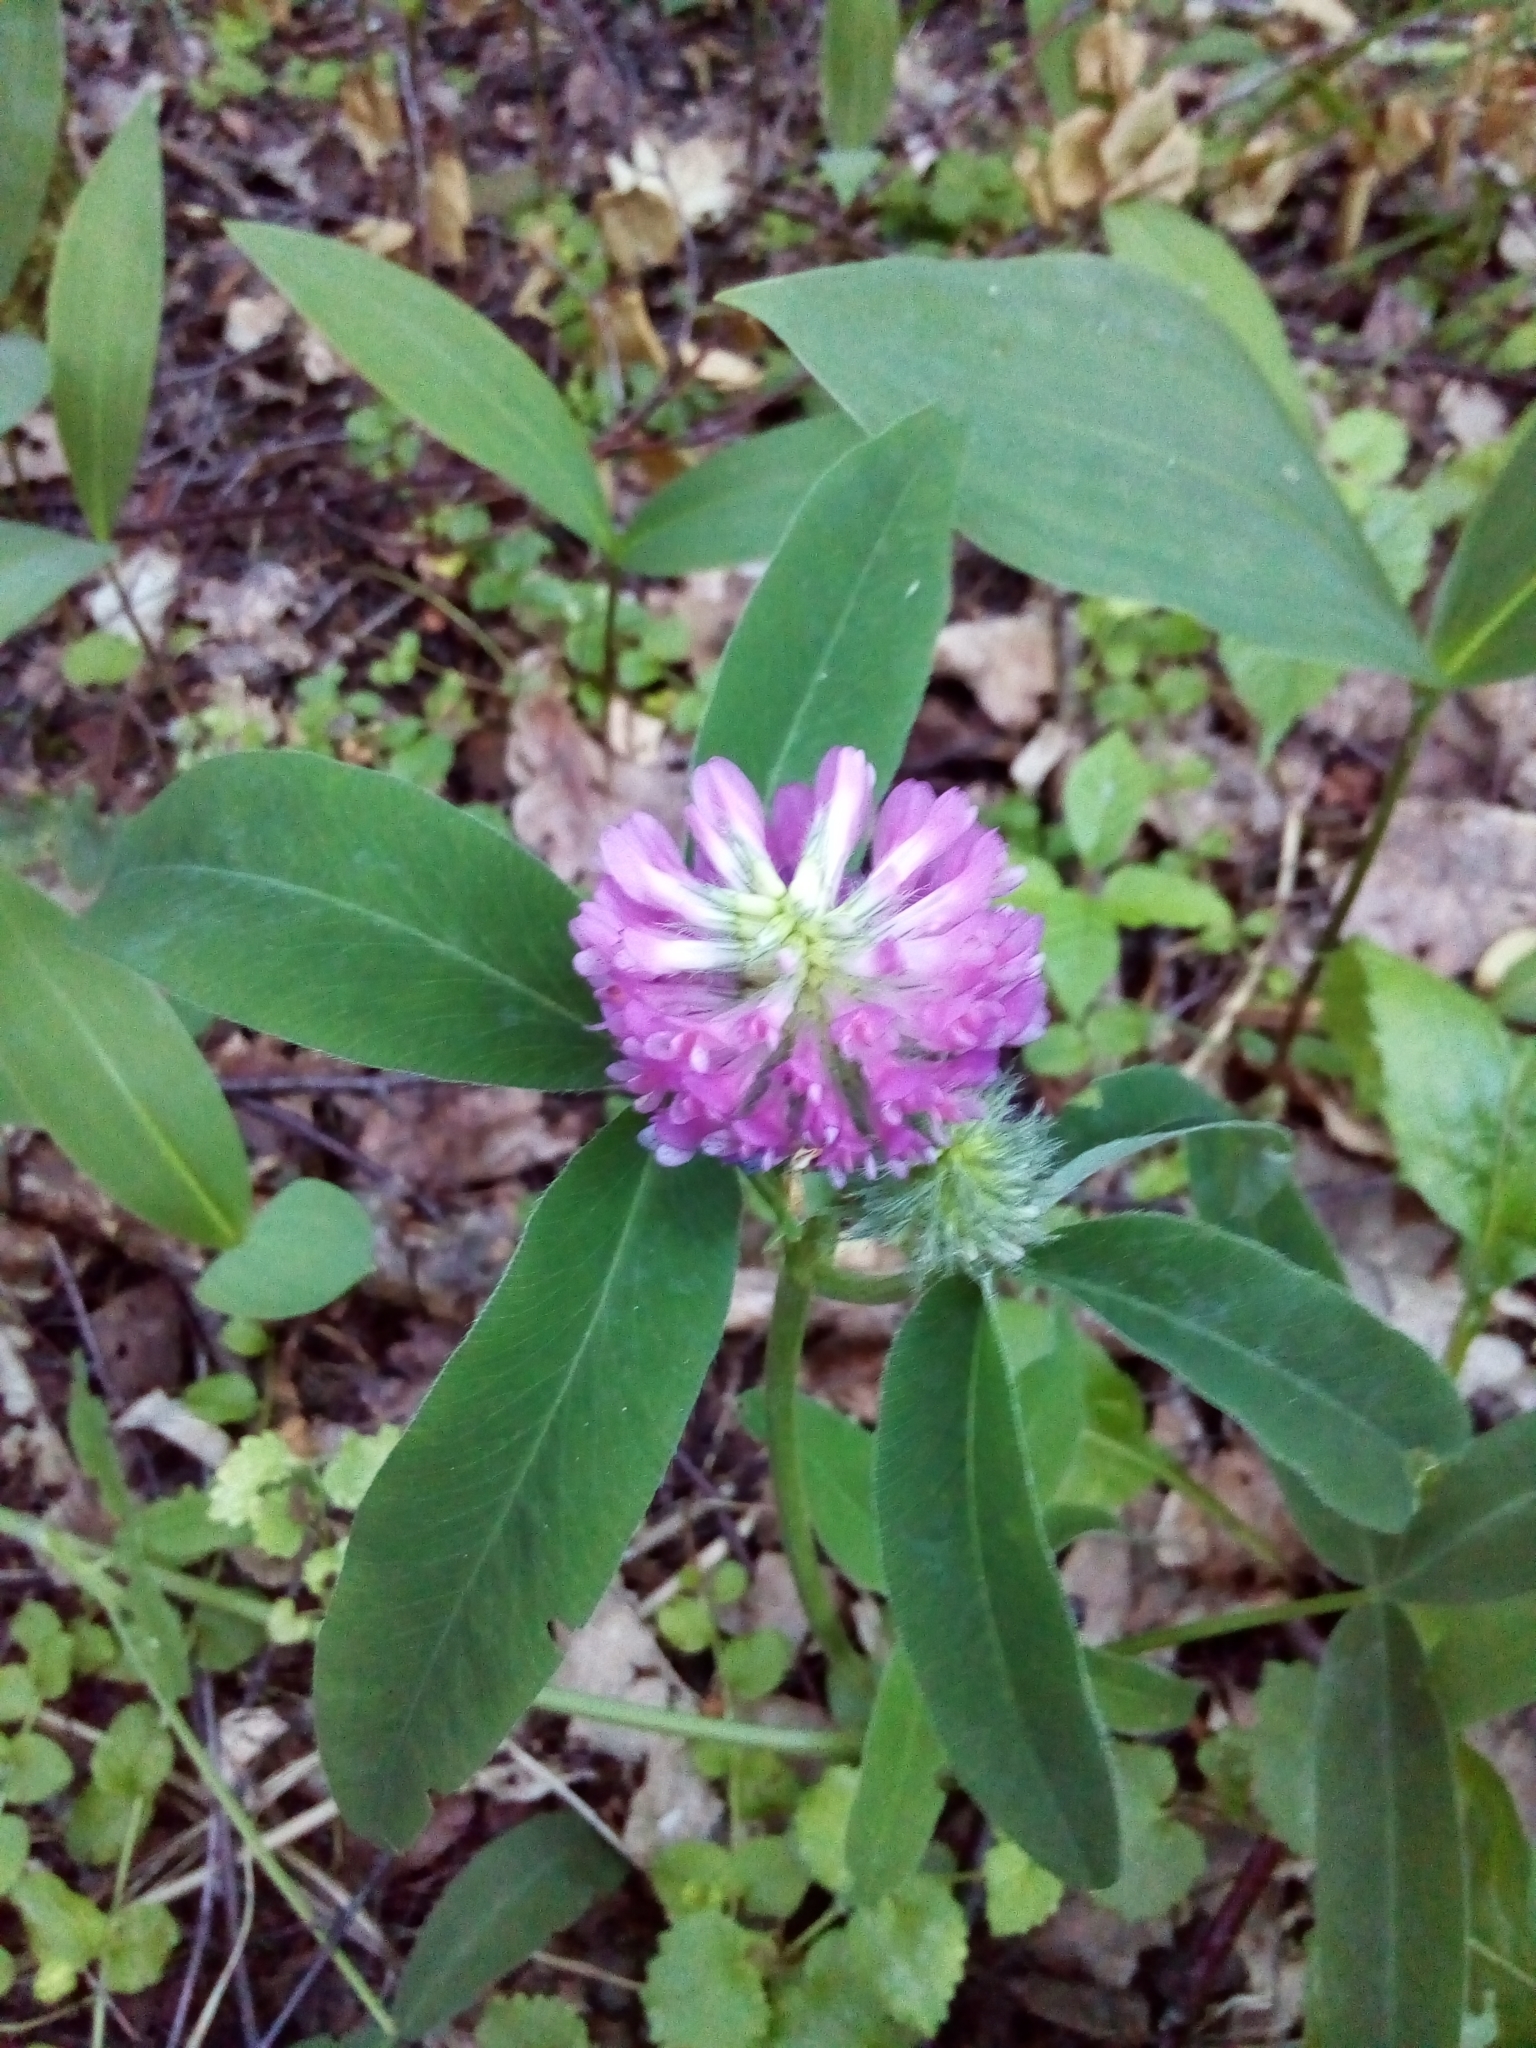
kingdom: Plantae
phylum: Tracheophyta
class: Magnoliopsida
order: Fabales
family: Fabaceae
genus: Trifolium
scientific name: Trifolium medium
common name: Zigzag clover
